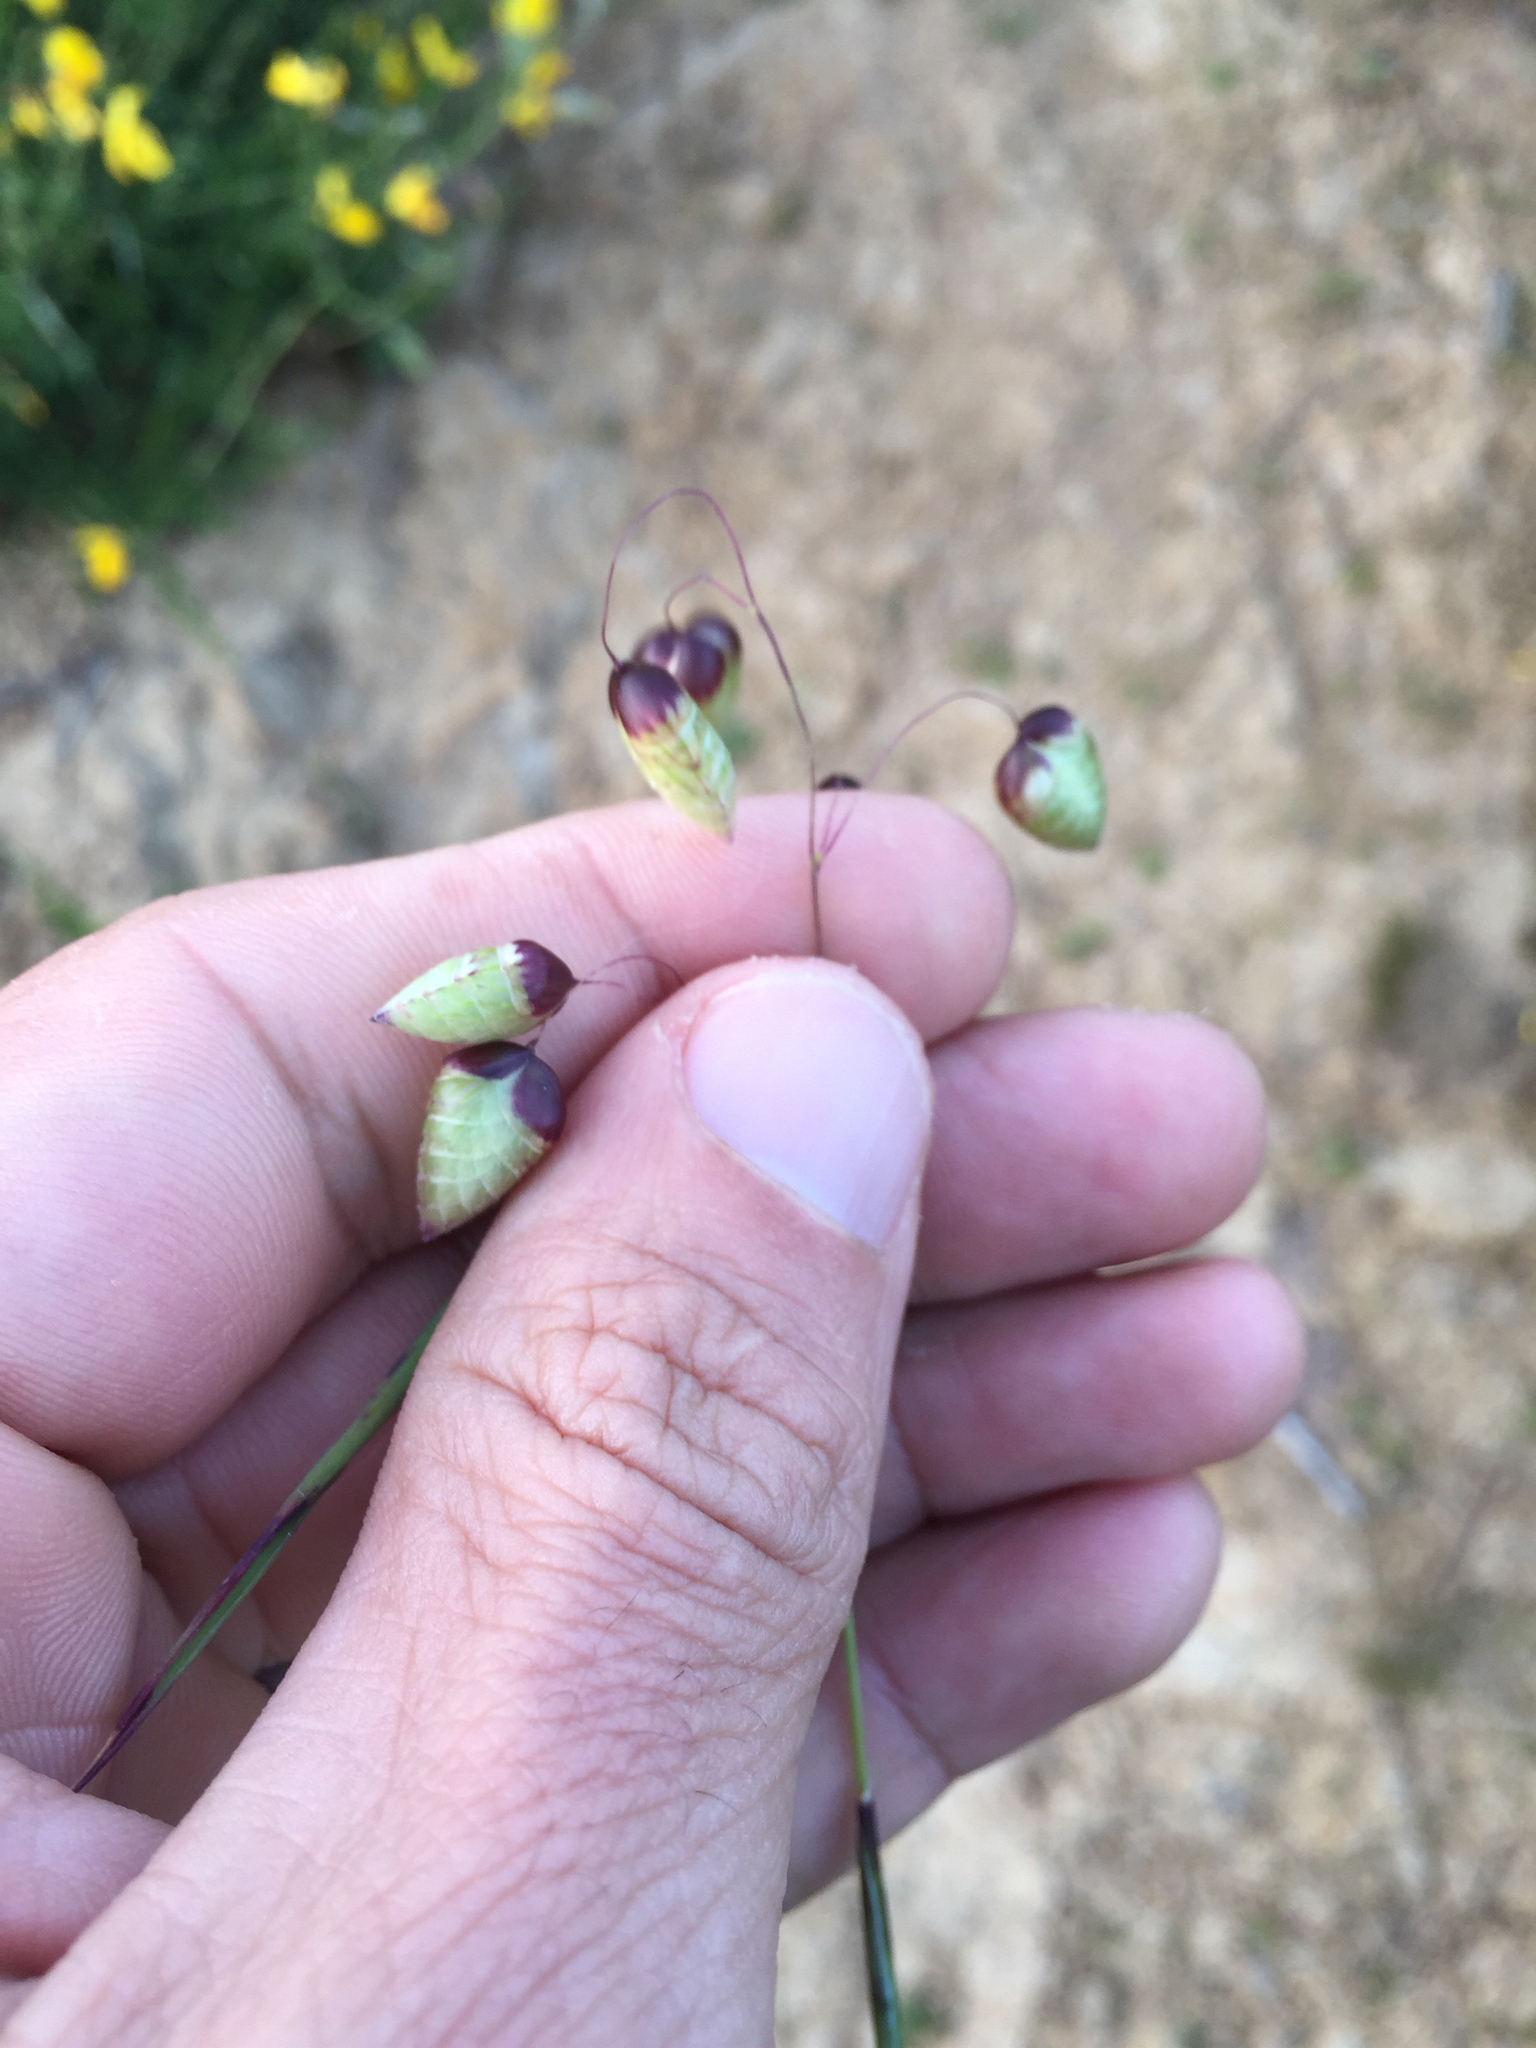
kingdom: Plantae
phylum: Tracheophyta
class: Liliopsida
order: Poales
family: Poaceae
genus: Briza
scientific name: Briza maxima
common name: Big quakinggrass
